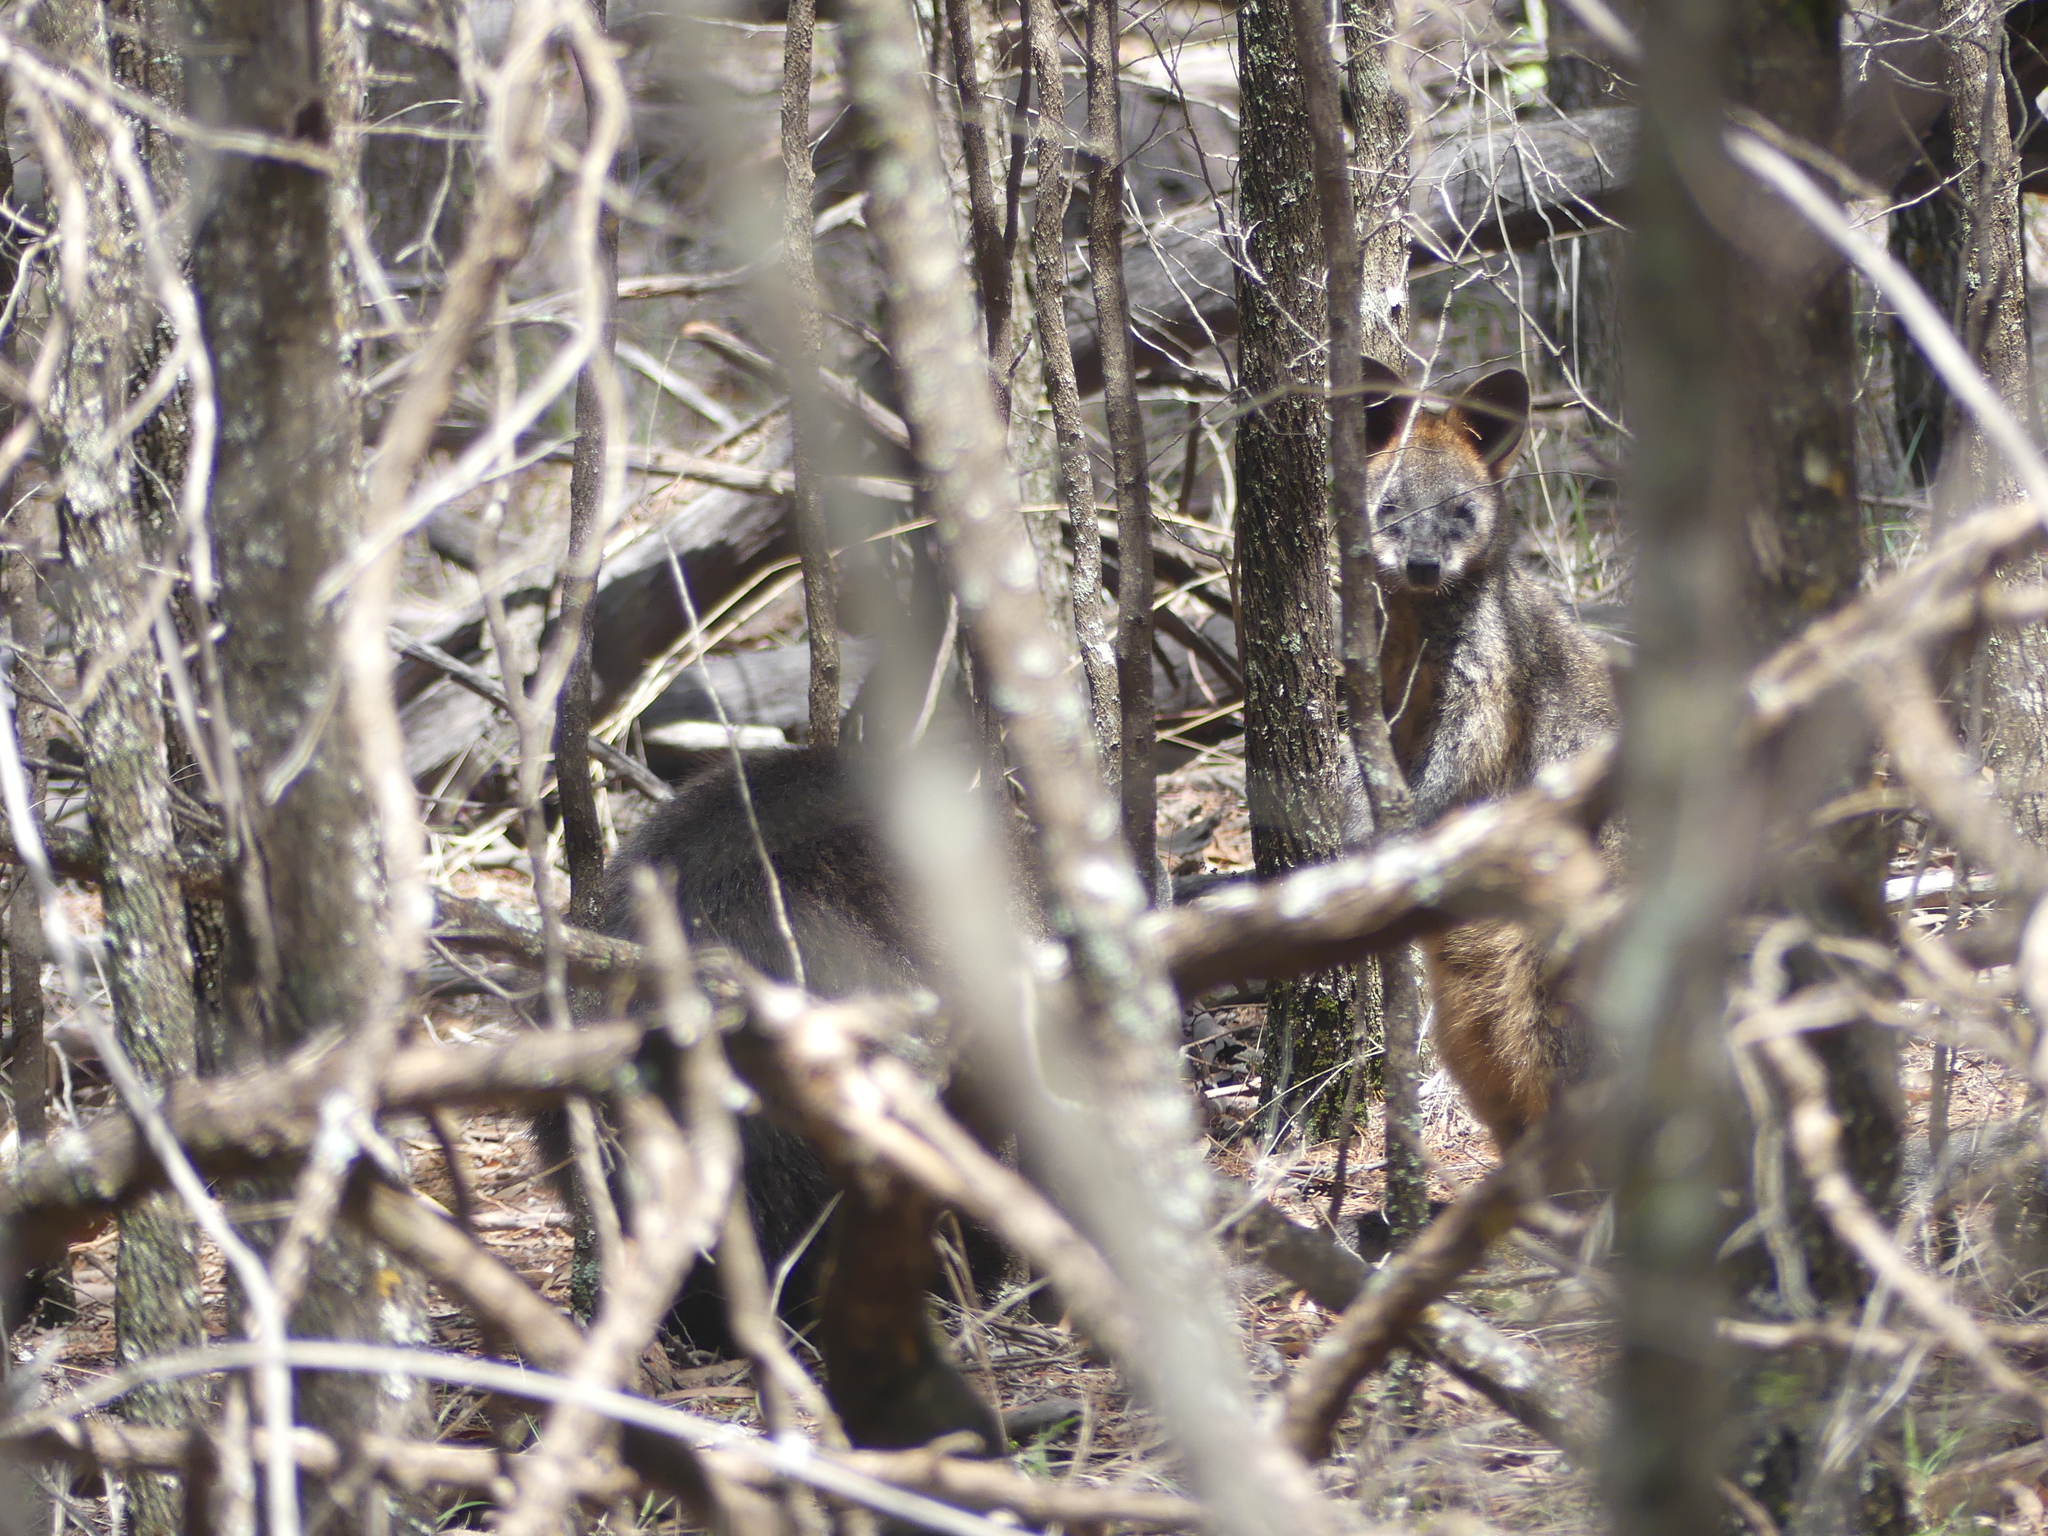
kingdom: Animalia
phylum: Chordata
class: Mammalia
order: Diprotodontia
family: Macropodidae
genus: Wallabia
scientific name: Wallabia bicolor
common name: Swamp wallaby
